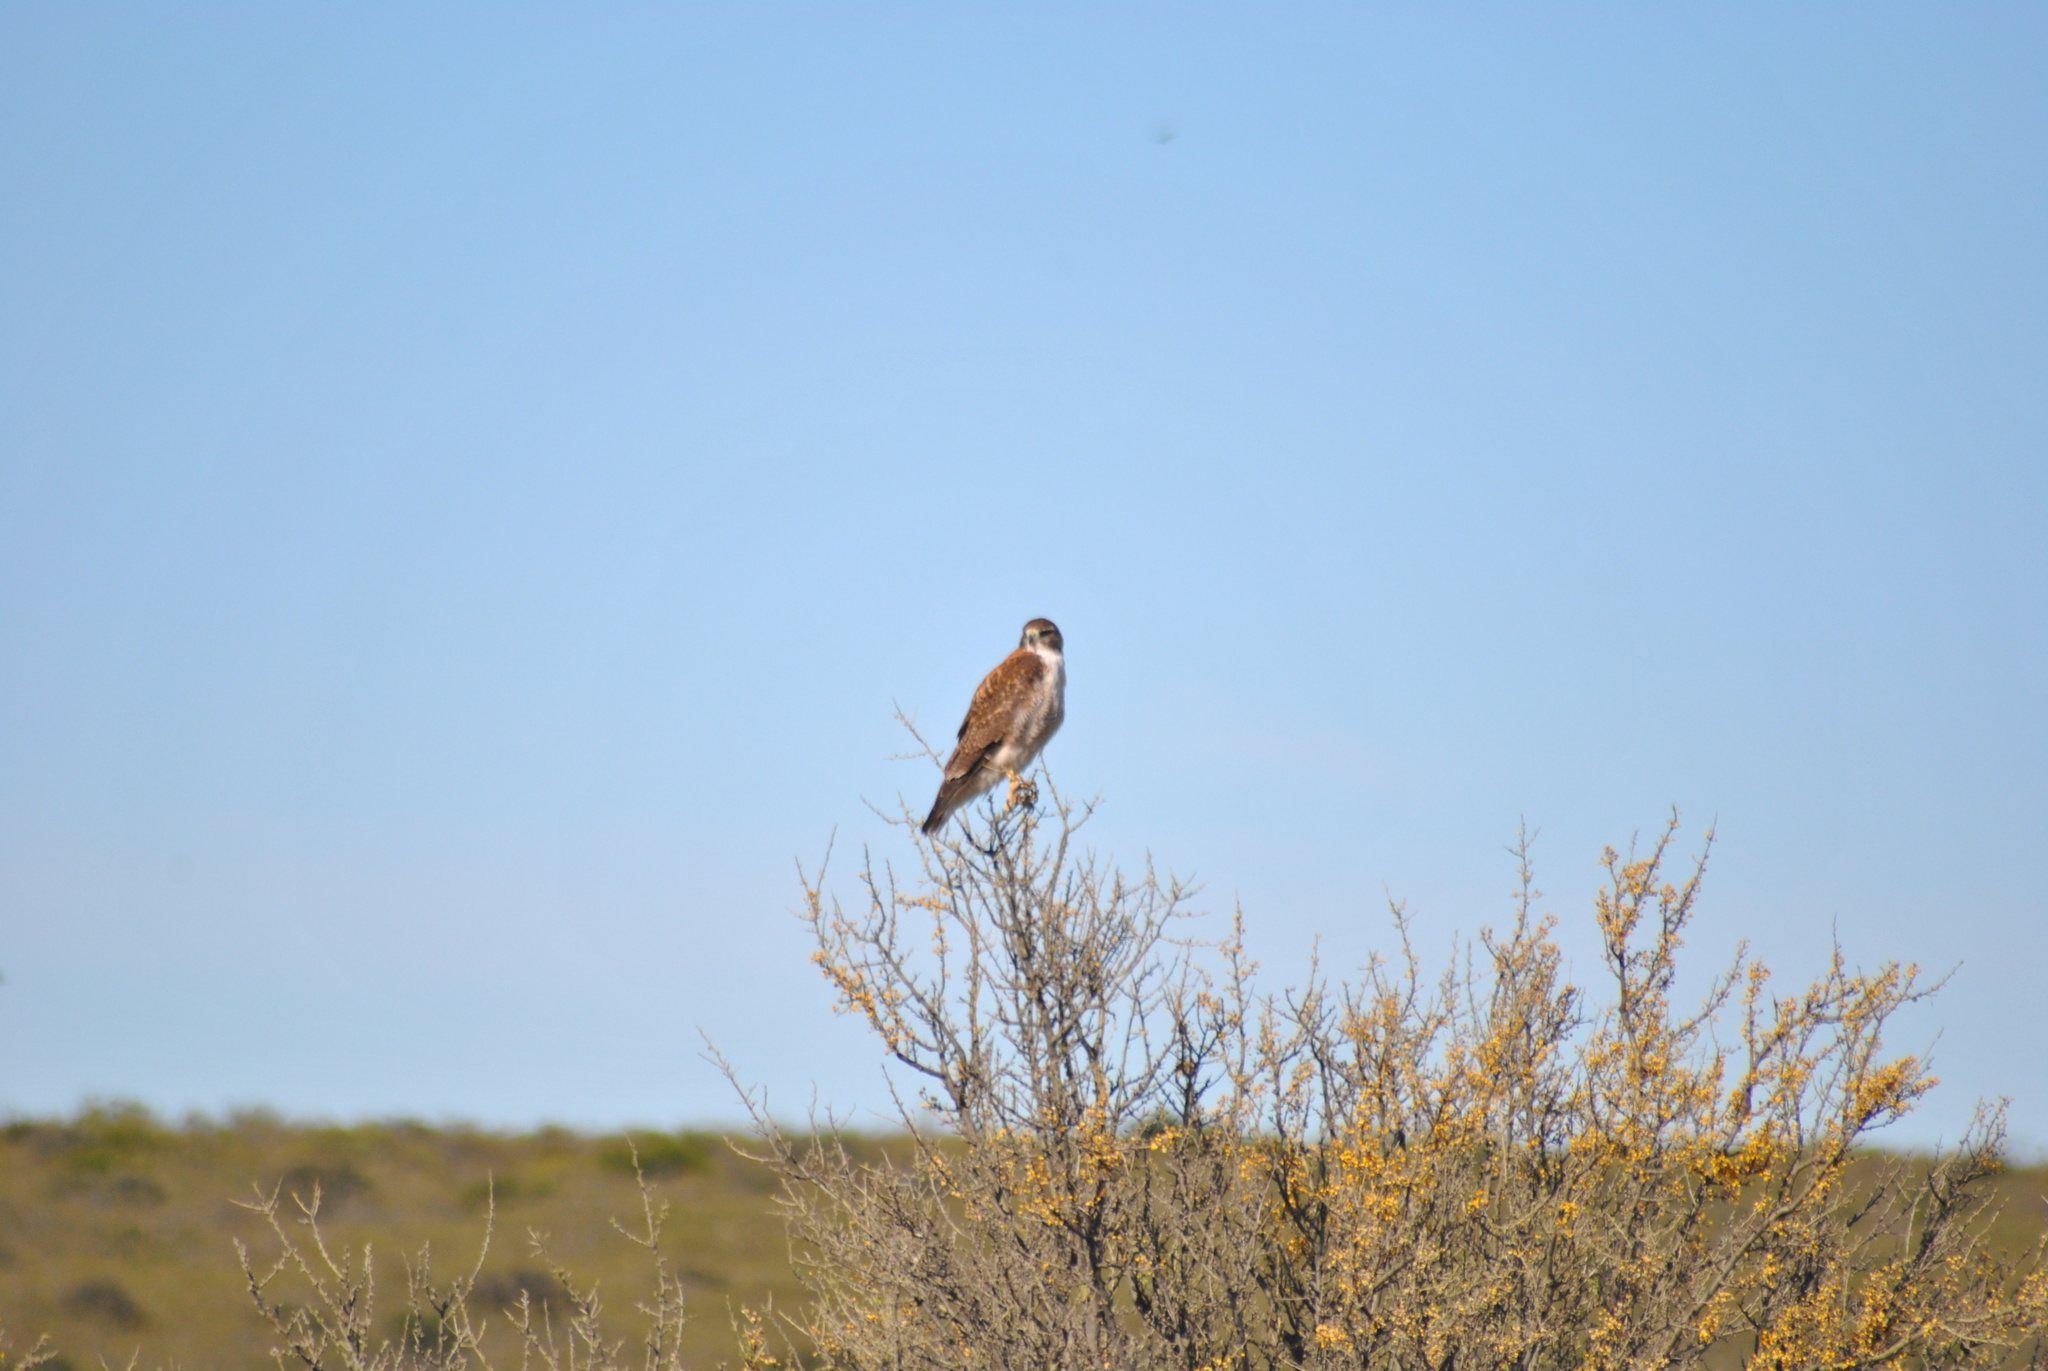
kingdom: Animalia
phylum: Chordata
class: Aves
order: Accipitriformes
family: Accipitridae
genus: Buteo
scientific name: Buteo polyosoma
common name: Variable hawk
